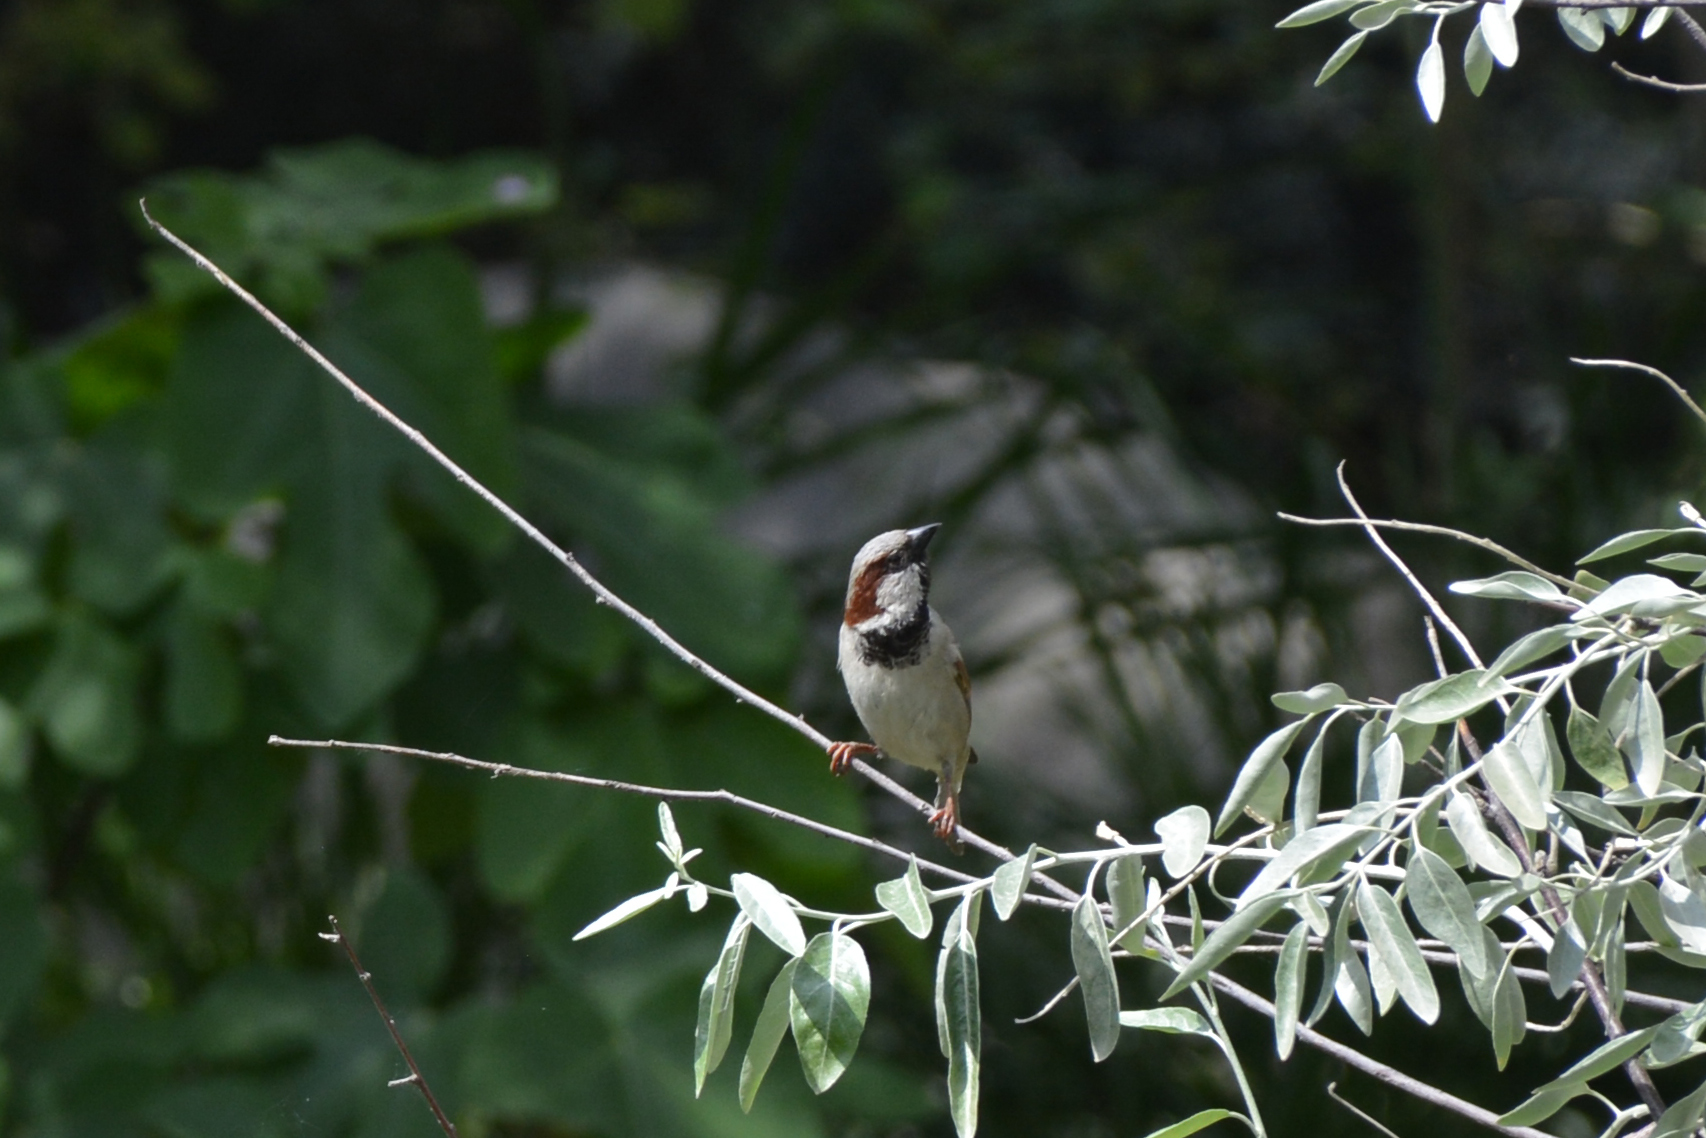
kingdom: Animalia
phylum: Chordata
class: Aves
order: Passeriformes
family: Passeridae
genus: Passer
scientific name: Passer domesticus
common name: House sparrow
